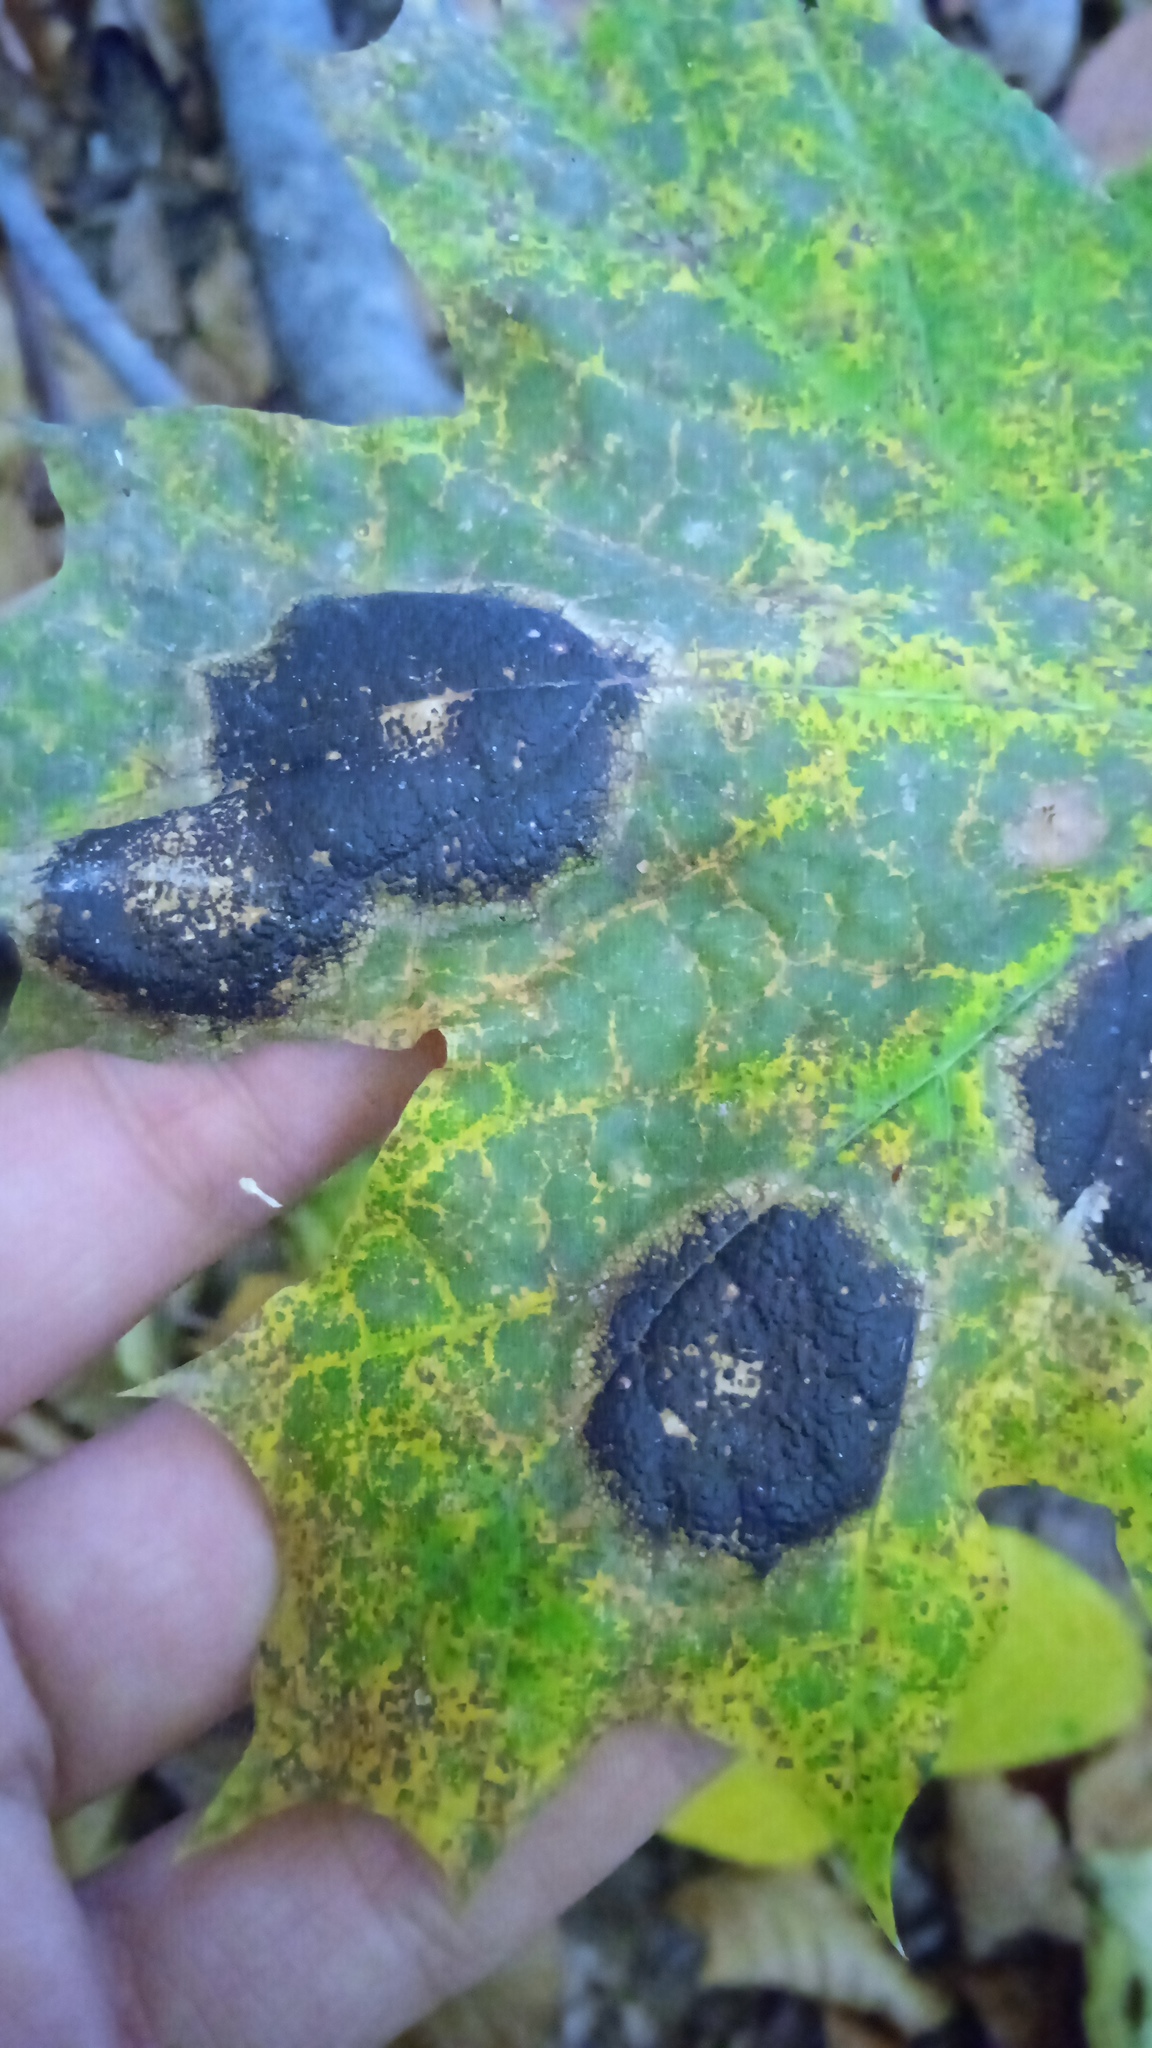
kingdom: Fungi
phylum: Ascomycota
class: Leotiomycetes
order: Rhytismatales
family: Rhytismataceae
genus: Rhytisma
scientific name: Rhytisma acerinum
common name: European tar spot
